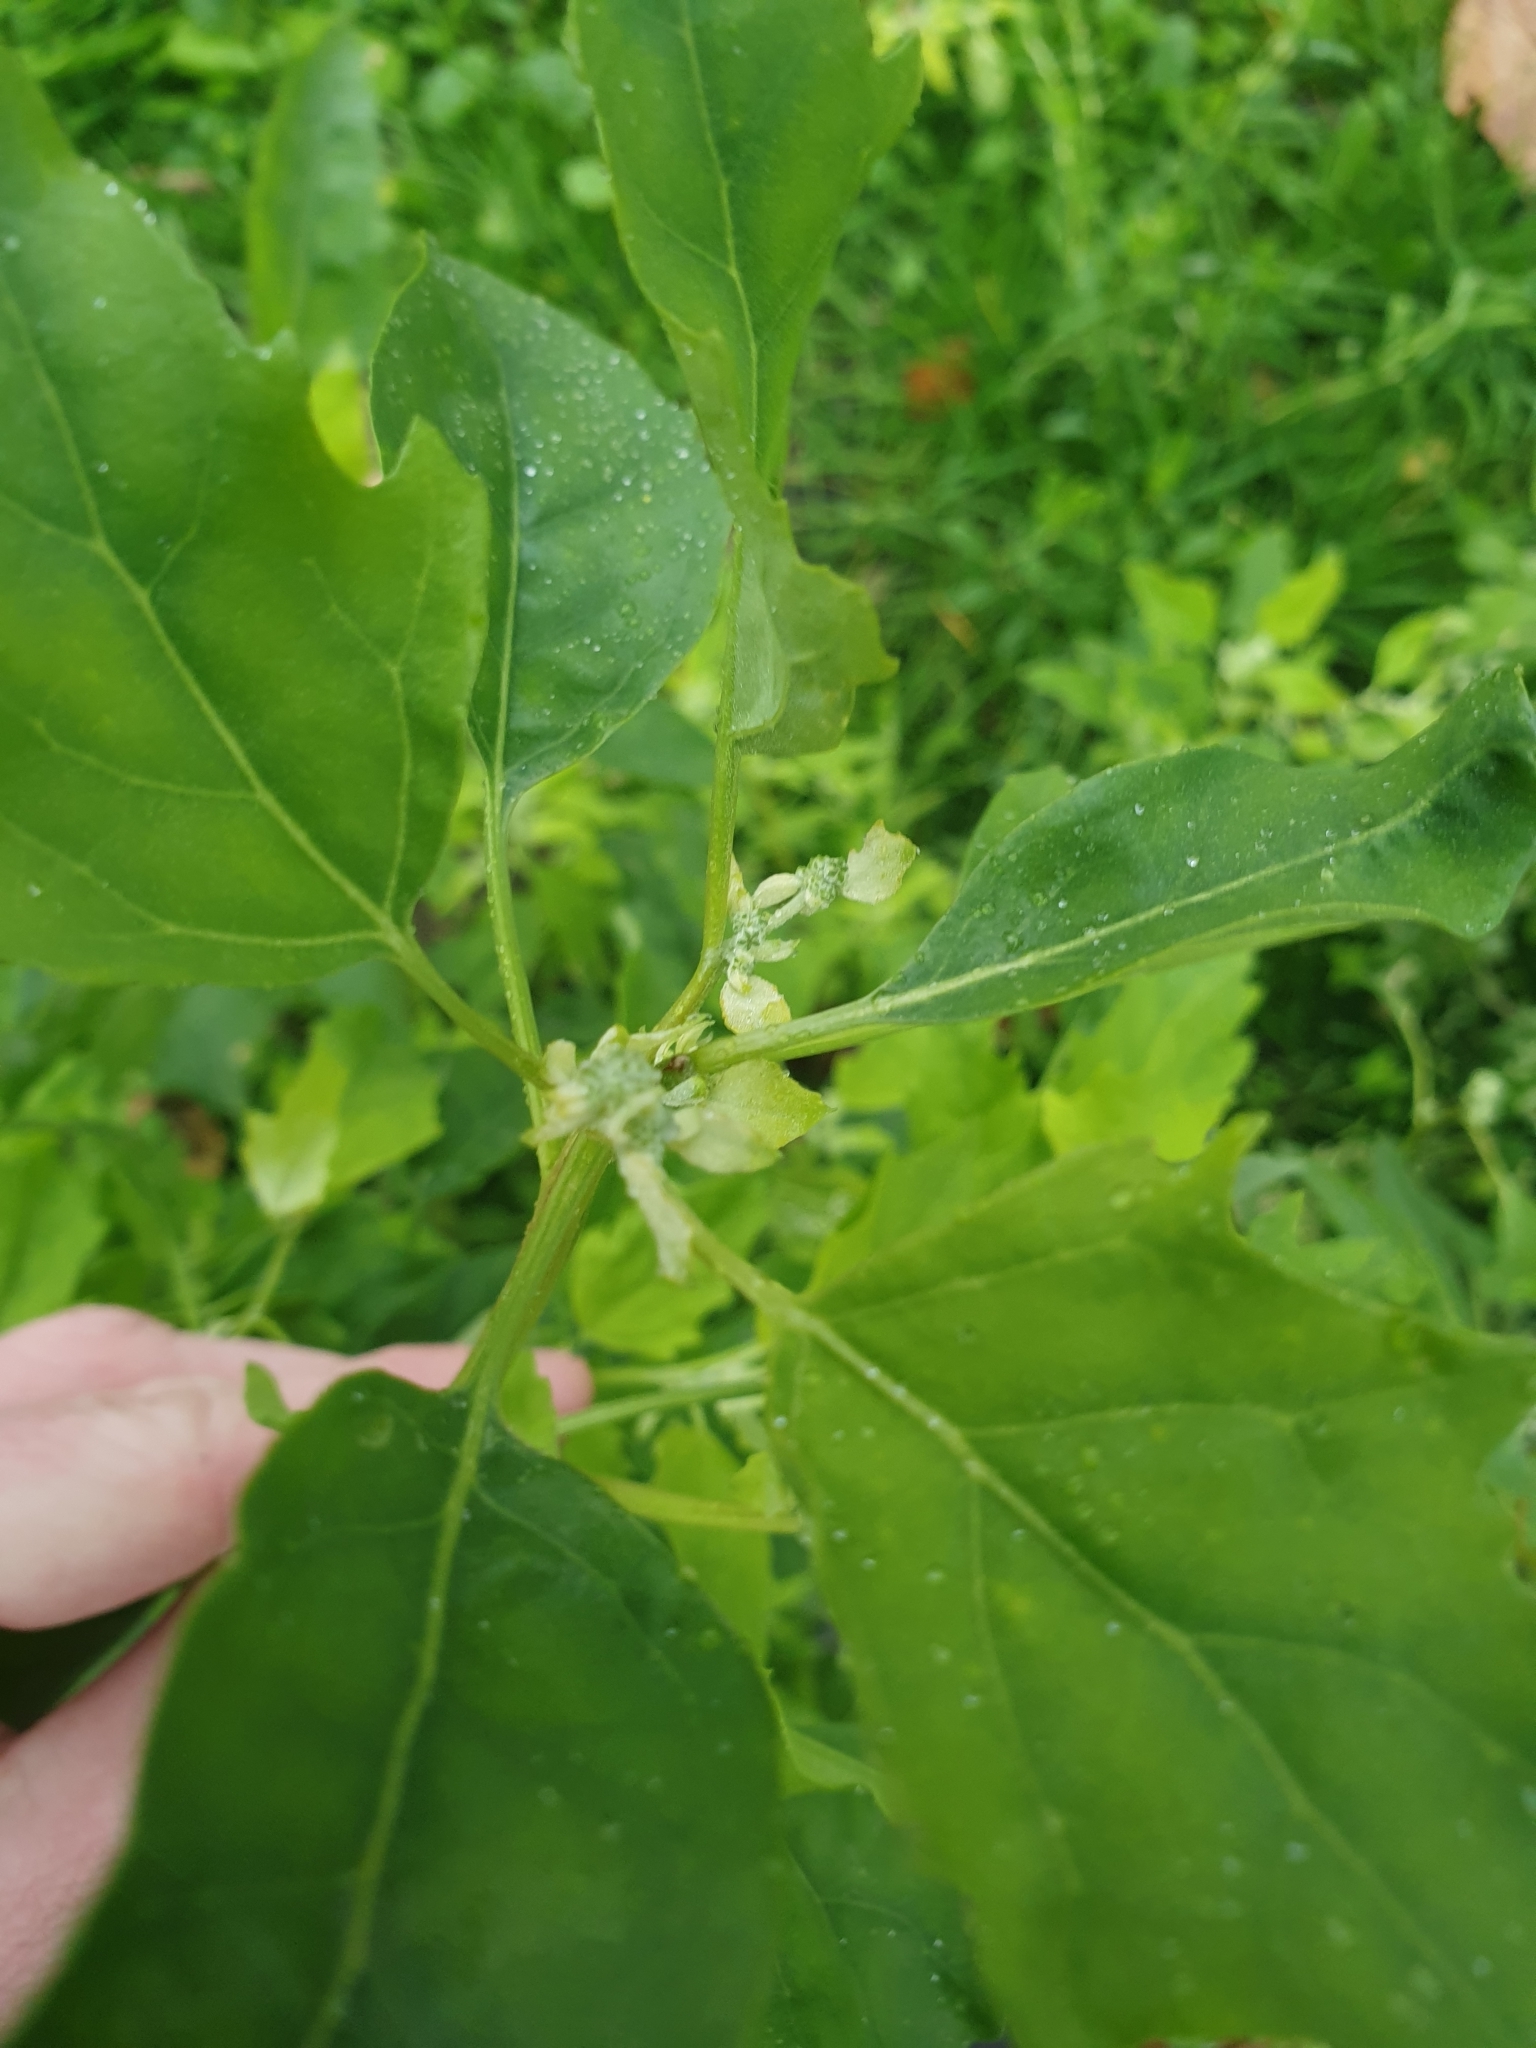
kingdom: Plantae
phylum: Tracheophyta
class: Magnoliopsida
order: Caryophyllales
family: Amaranthaceae
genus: Chenopodium
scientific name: Chenopodium album
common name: Fat-hen
